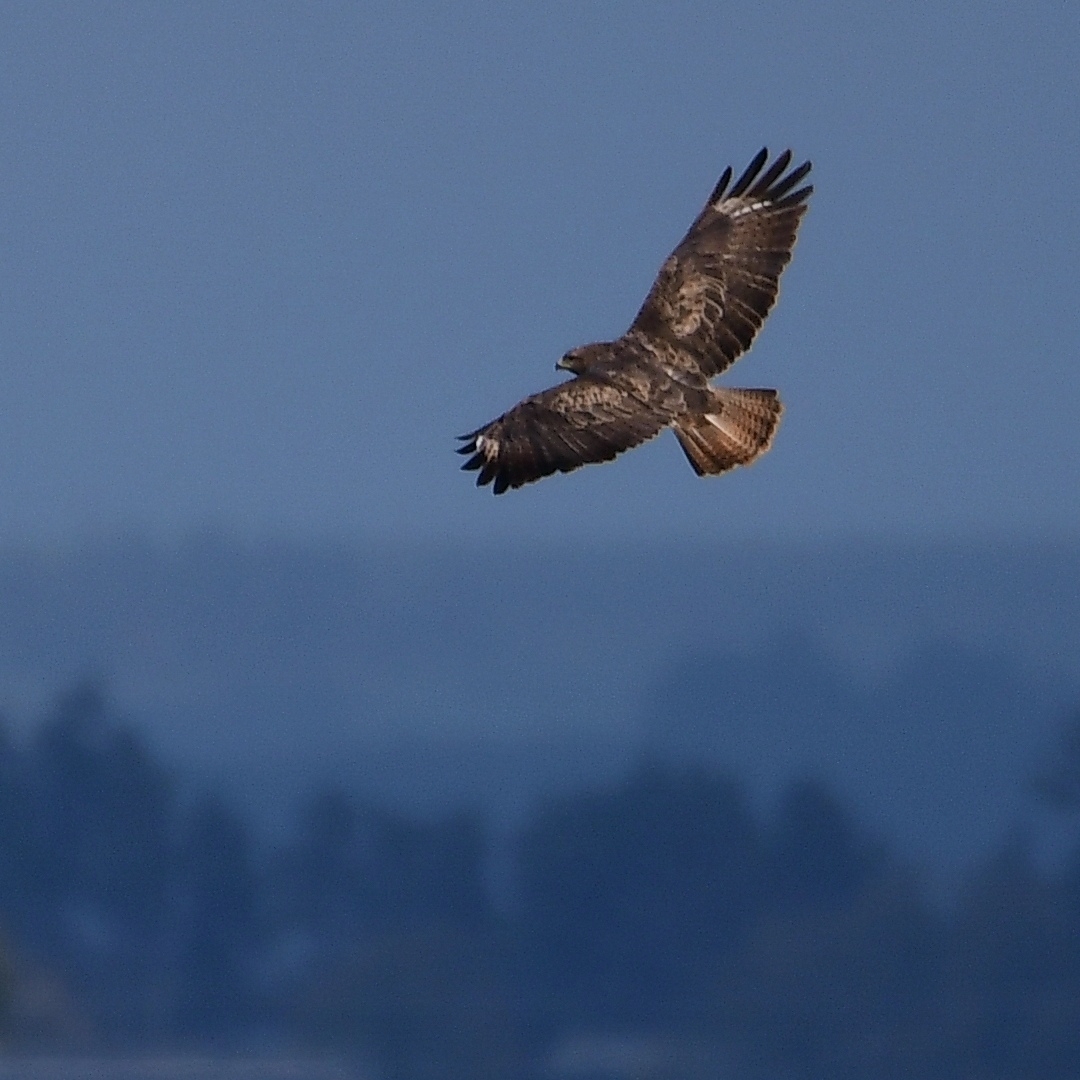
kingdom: Animalia
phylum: Chordata
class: Aves
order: Accipitriformes
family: Accipitridae
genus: Buteo
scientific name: Buteo buteo
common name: Common buzzard
